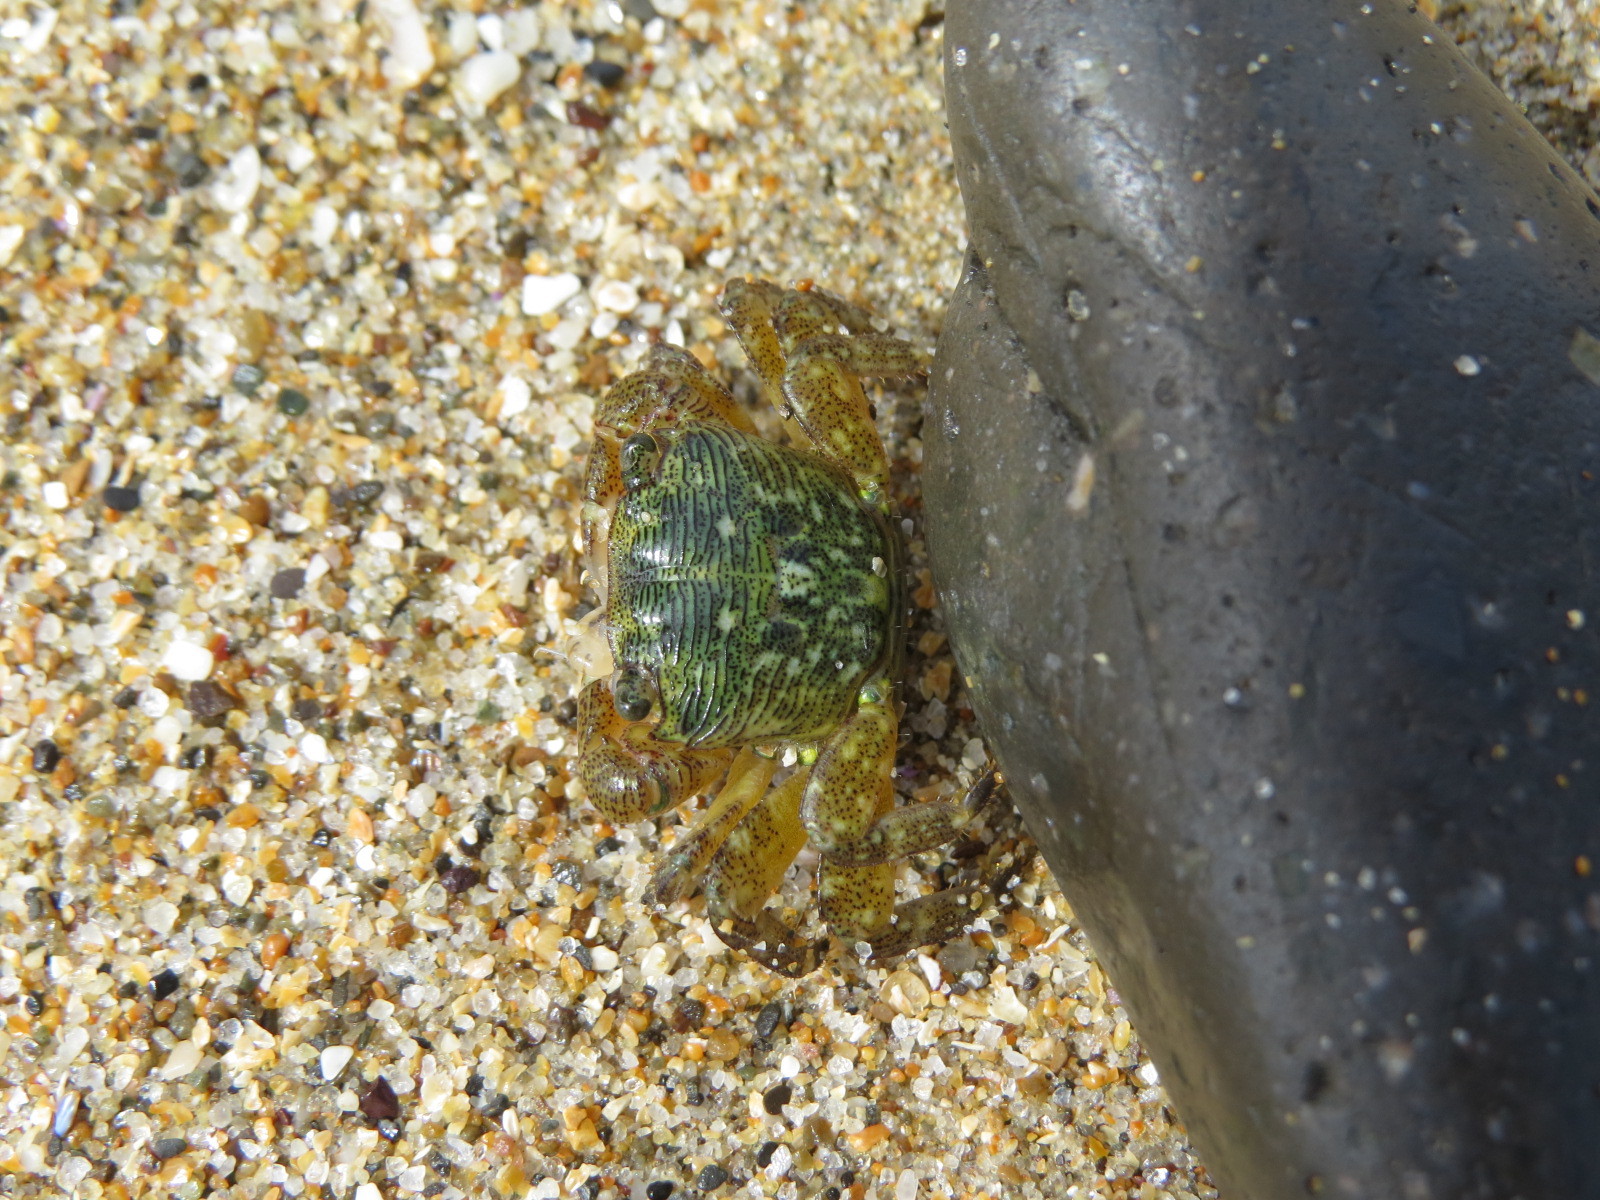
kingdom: Animalia
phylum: Arthropoda
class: Malacostraca
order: Decapoda
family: Grapsidae
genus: Pachygrapsus
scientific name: Pachygrapsus crassipes
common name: Striped shore crab
